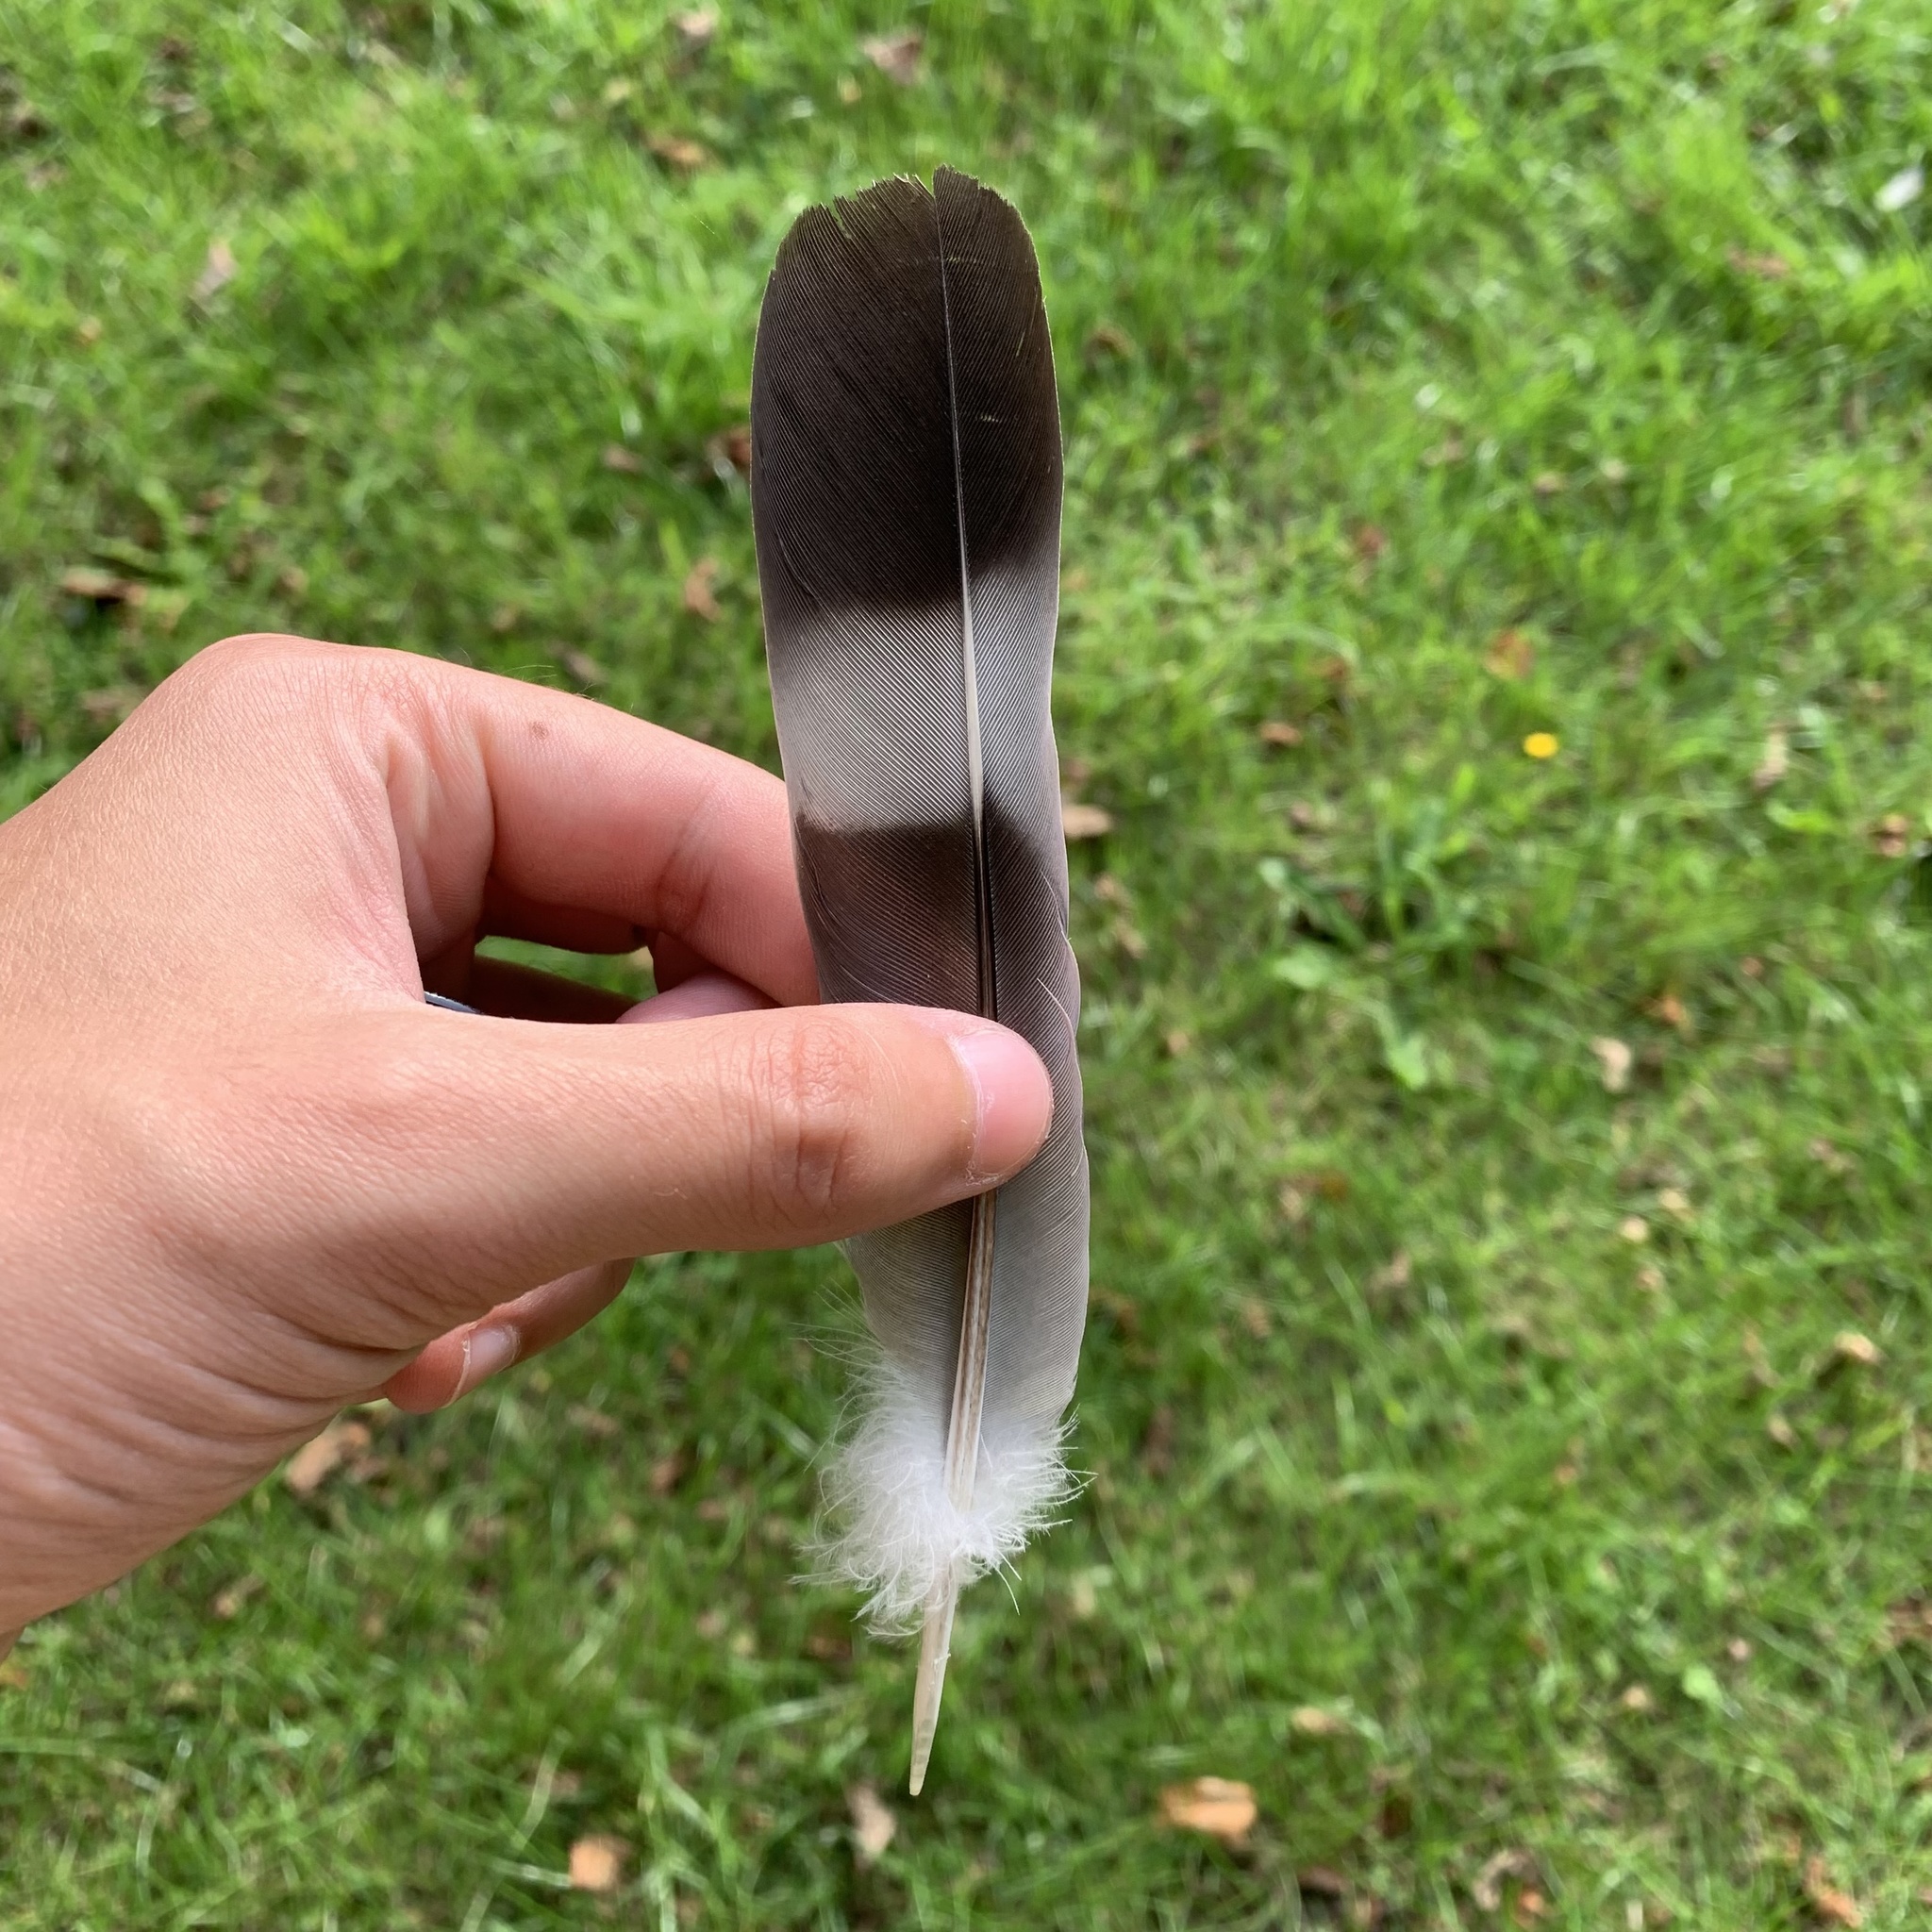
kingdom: Animalia
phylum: Chordata
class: Aves
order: Columbiformes
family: Columbidae
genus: Columba
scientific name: Columba palumbus
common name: Common wood pigeon
